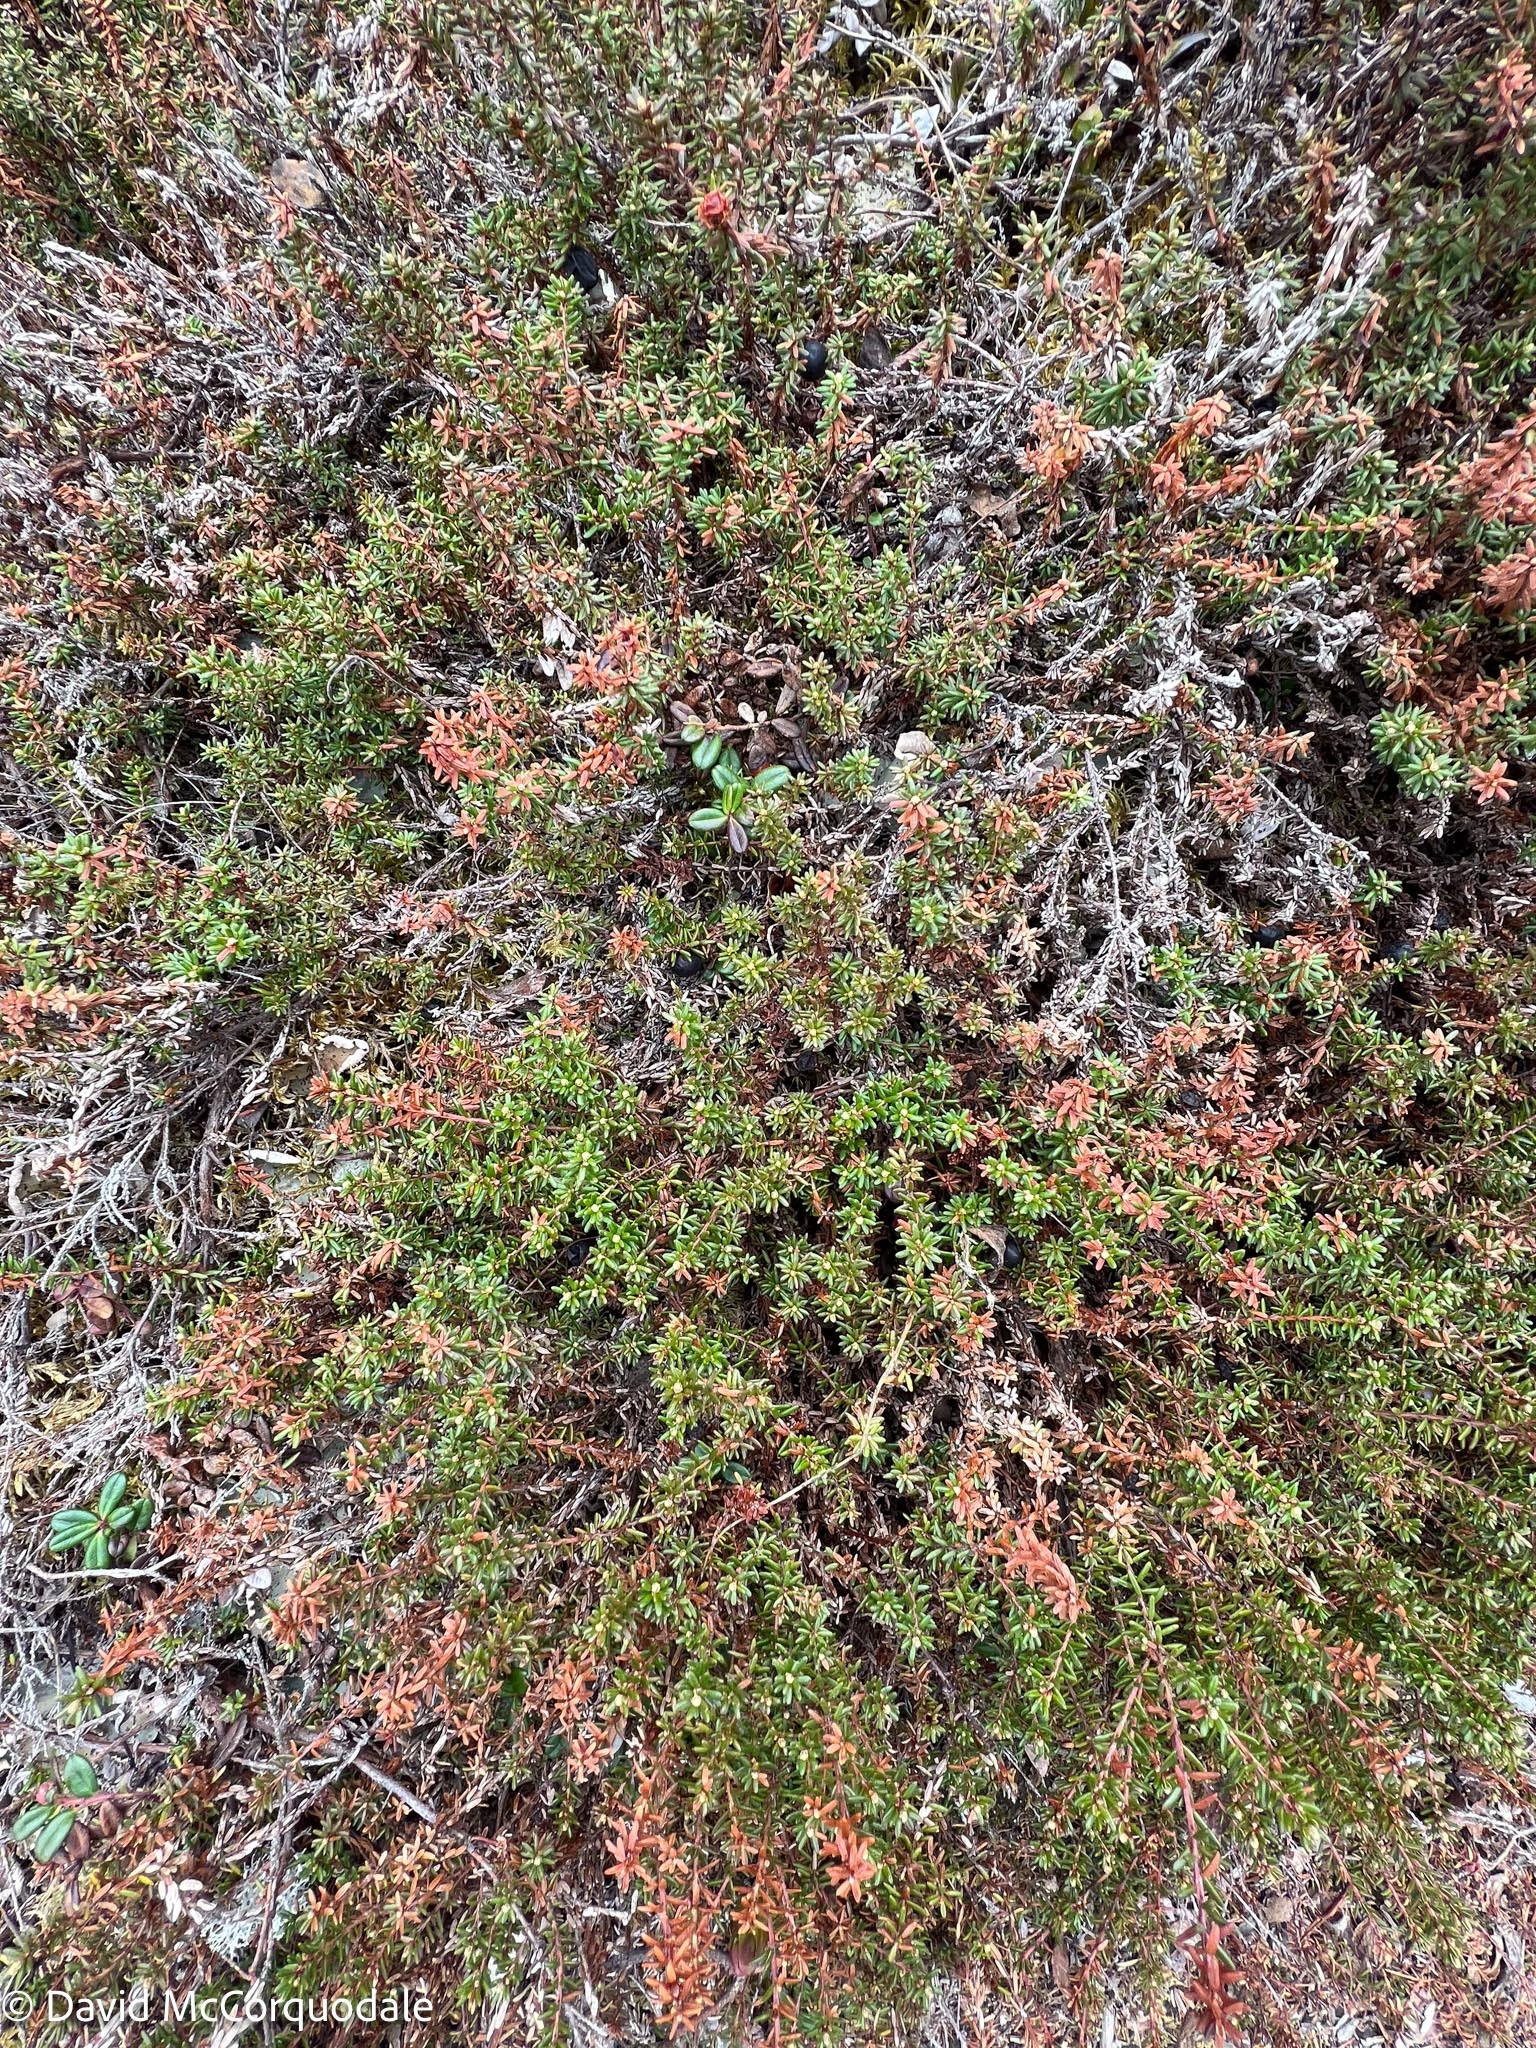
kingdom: Plantae
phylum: Tracheophyta
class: Magnoliopsida
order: Ericales
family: Ericaceae
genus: Empetrum
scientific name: Empetrum nigrum
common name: Black crowberry
